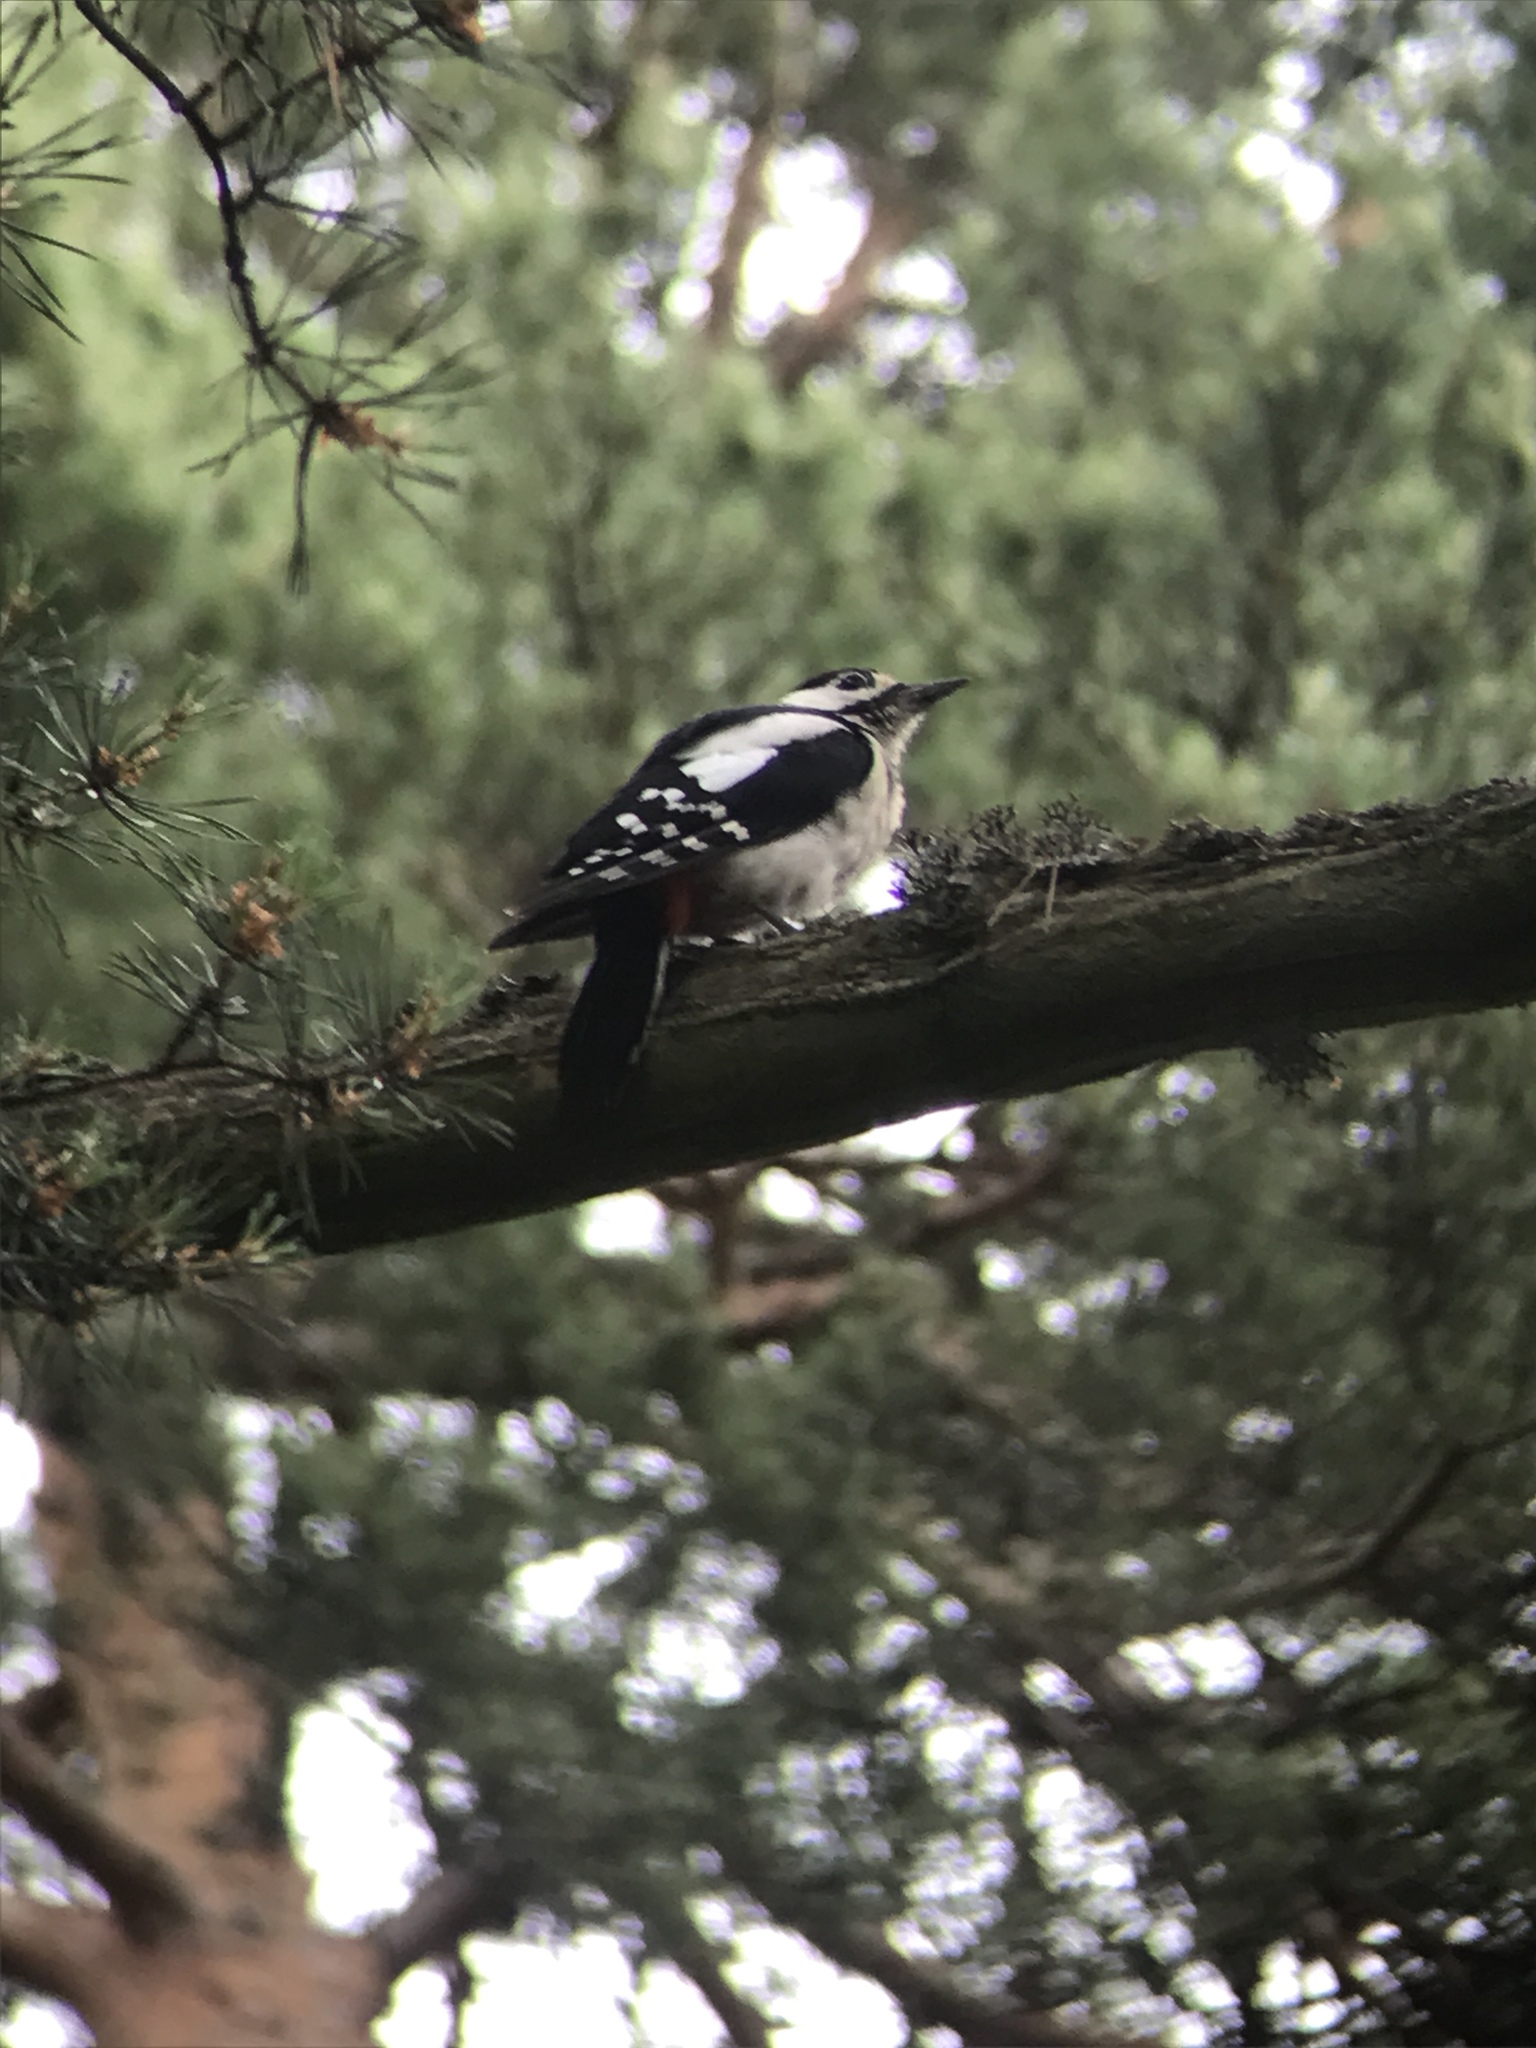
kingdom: Animalia
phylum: Chordata
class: Aves
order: Piciformes
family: Picidae
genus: Dendrocopos
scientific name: Dendrocopos major
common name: Great spotted woodpecker
